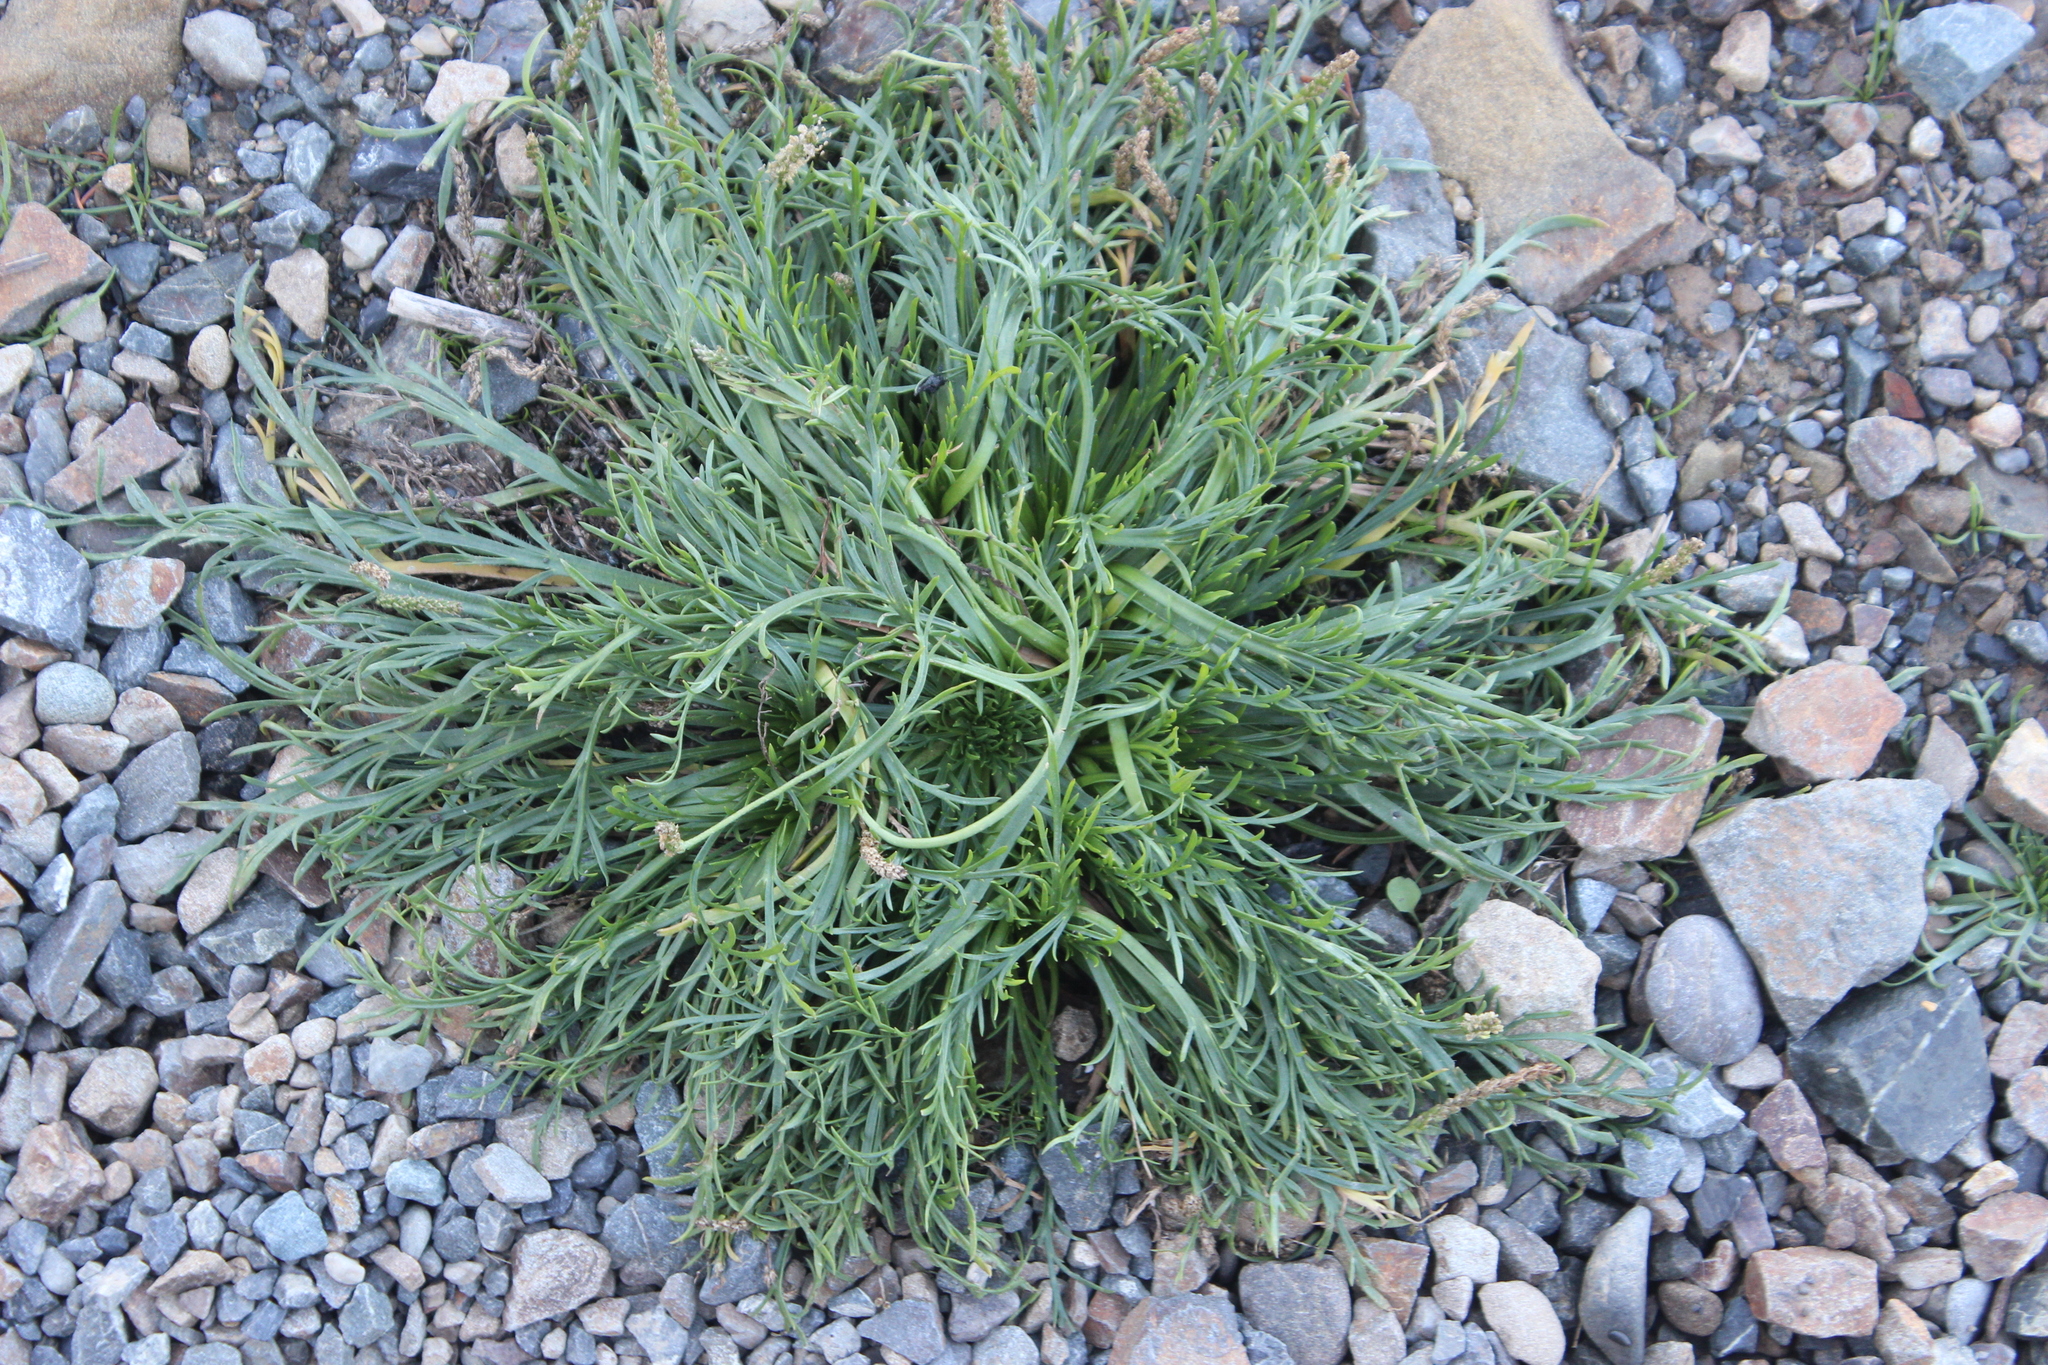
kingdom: Plantae
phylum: Tracheophyta
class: Magnoliopsida
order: Lamiales
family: Plantaginaceae
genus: Plantago
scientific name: Plantago coronopus
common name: Buck's-horn plantain
